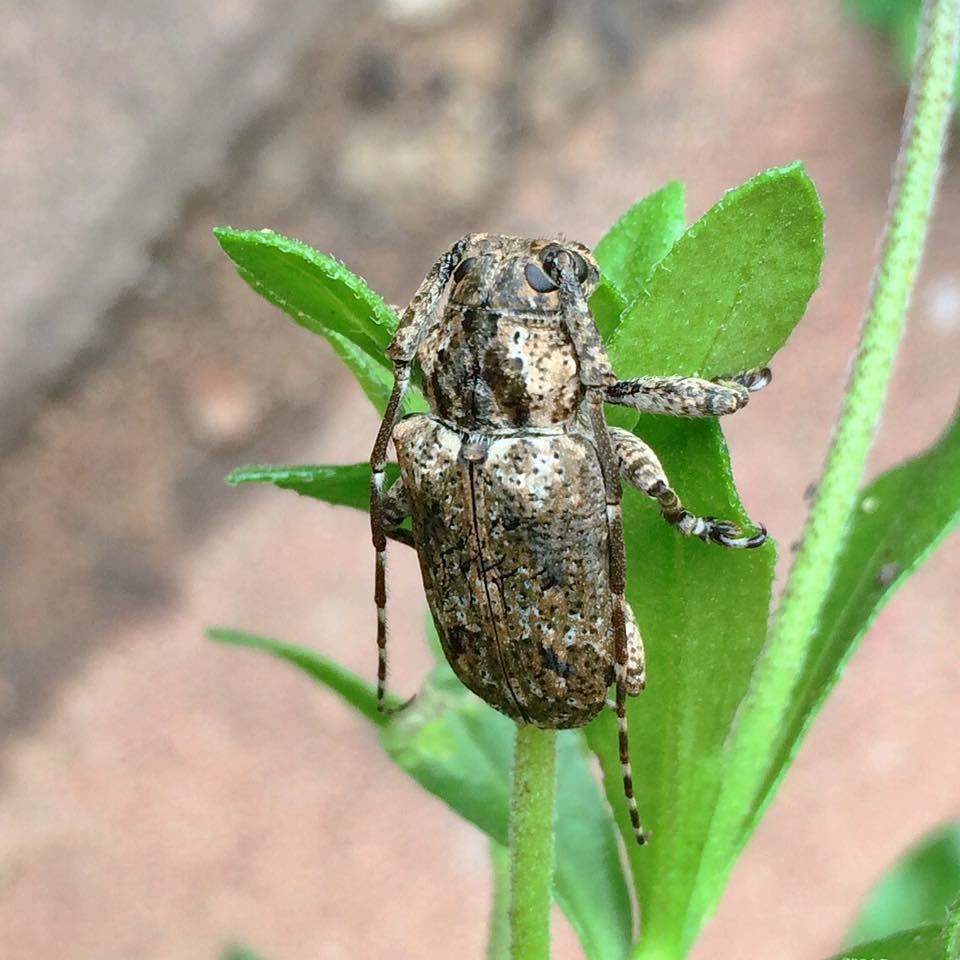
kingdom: Animalia
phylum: Arthropoda
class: Insecta
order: Coleoptera
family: Cerambycidae
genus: Coptops
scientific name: Coptops aedificator
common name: Long-horned beetle
